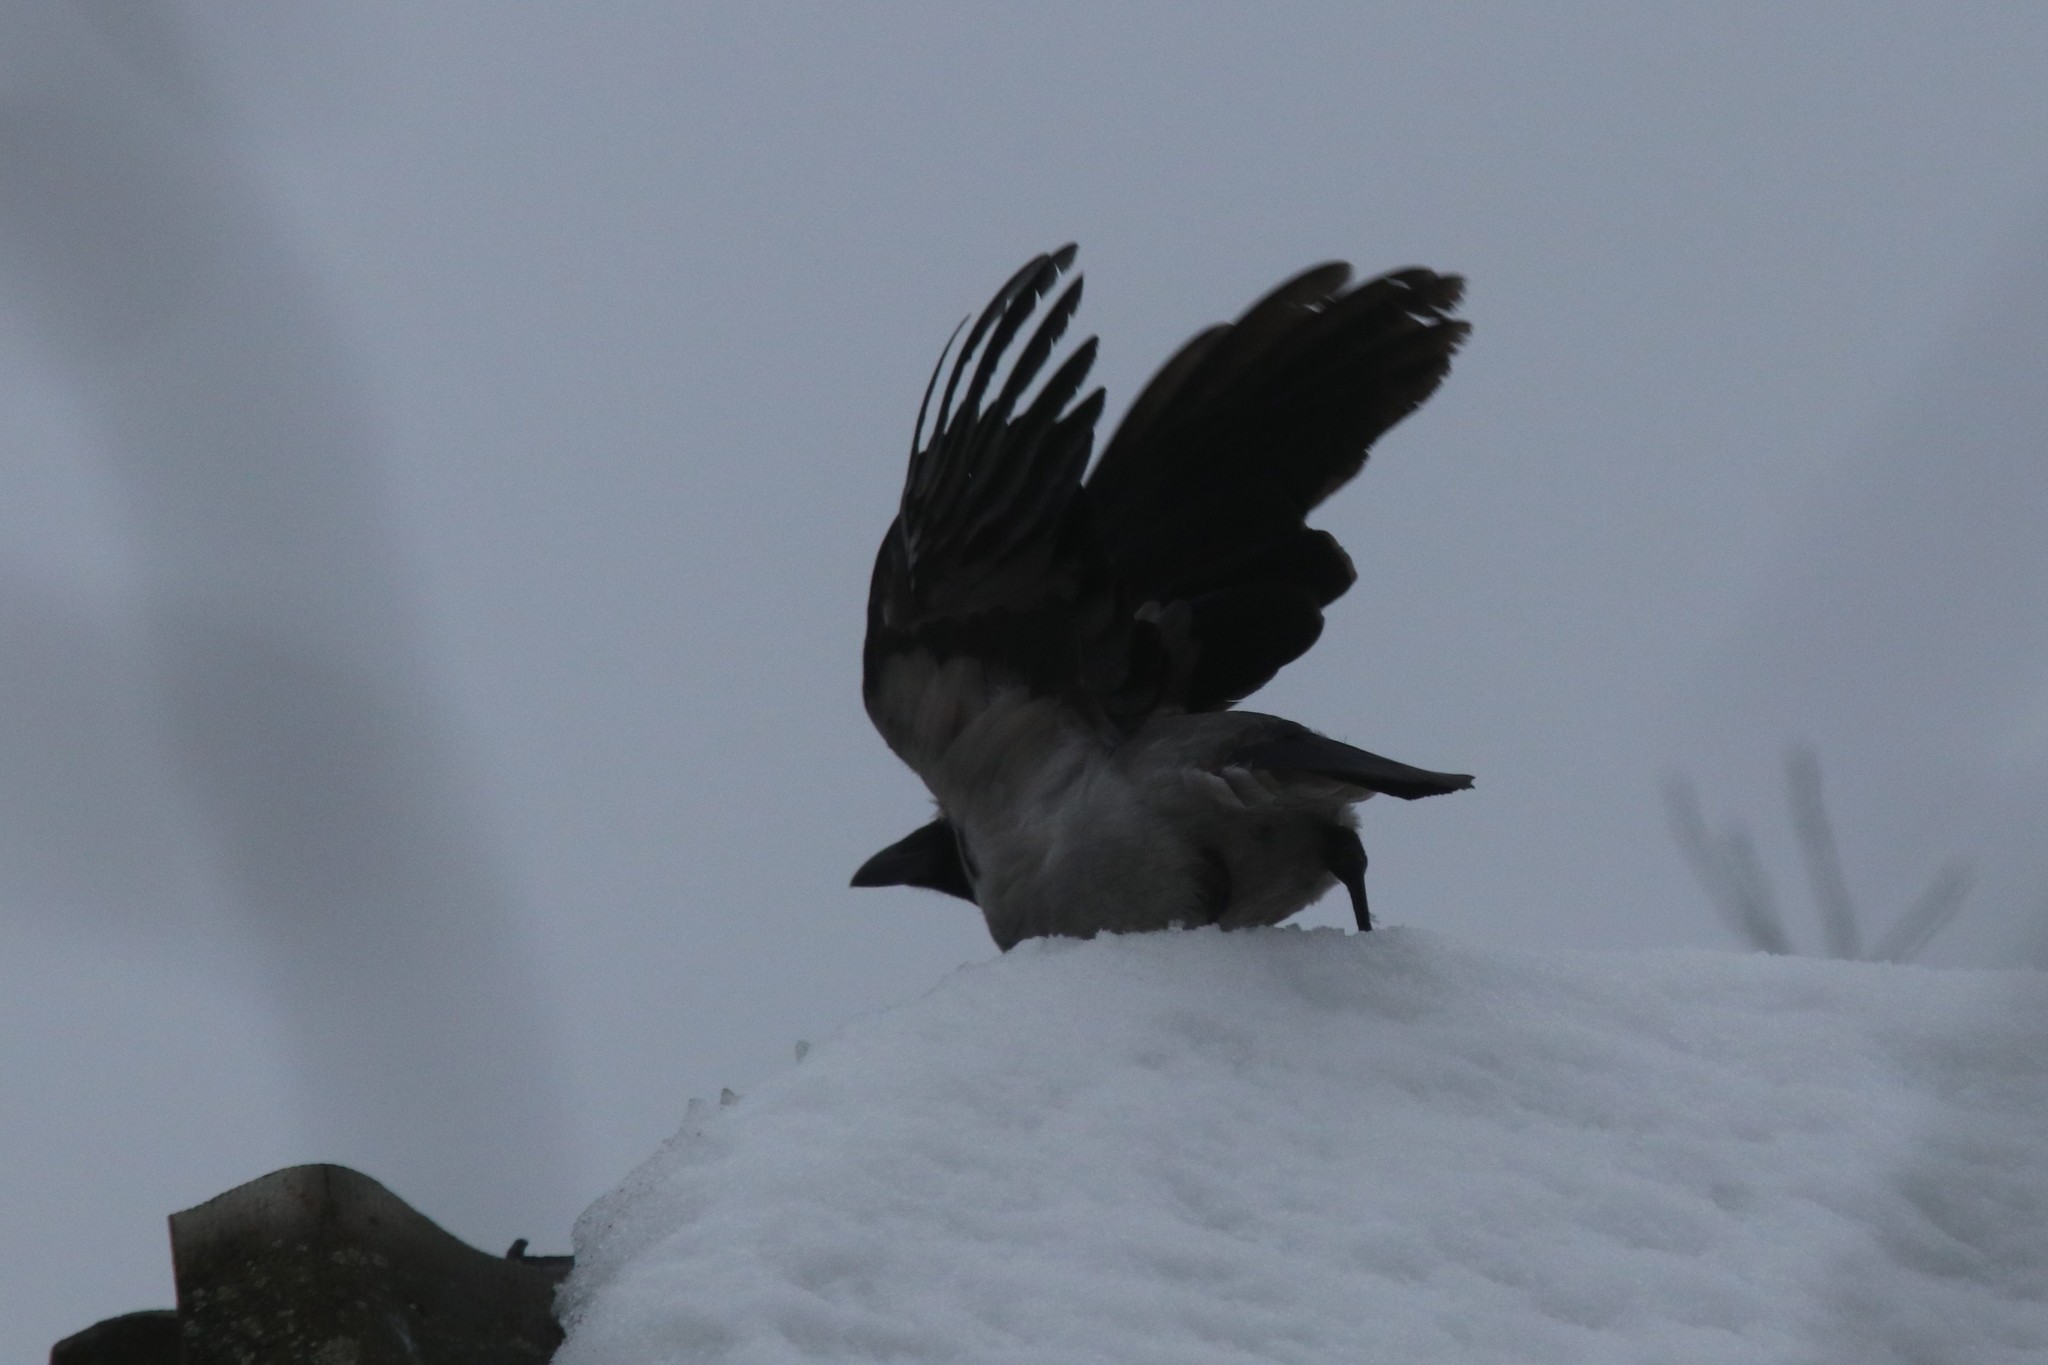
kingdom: Animalia
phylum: Chordata
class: Aves
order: Passeriformes
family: Corvidae
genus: Corvus
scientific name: Corvus cornix
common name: Hooded crow
